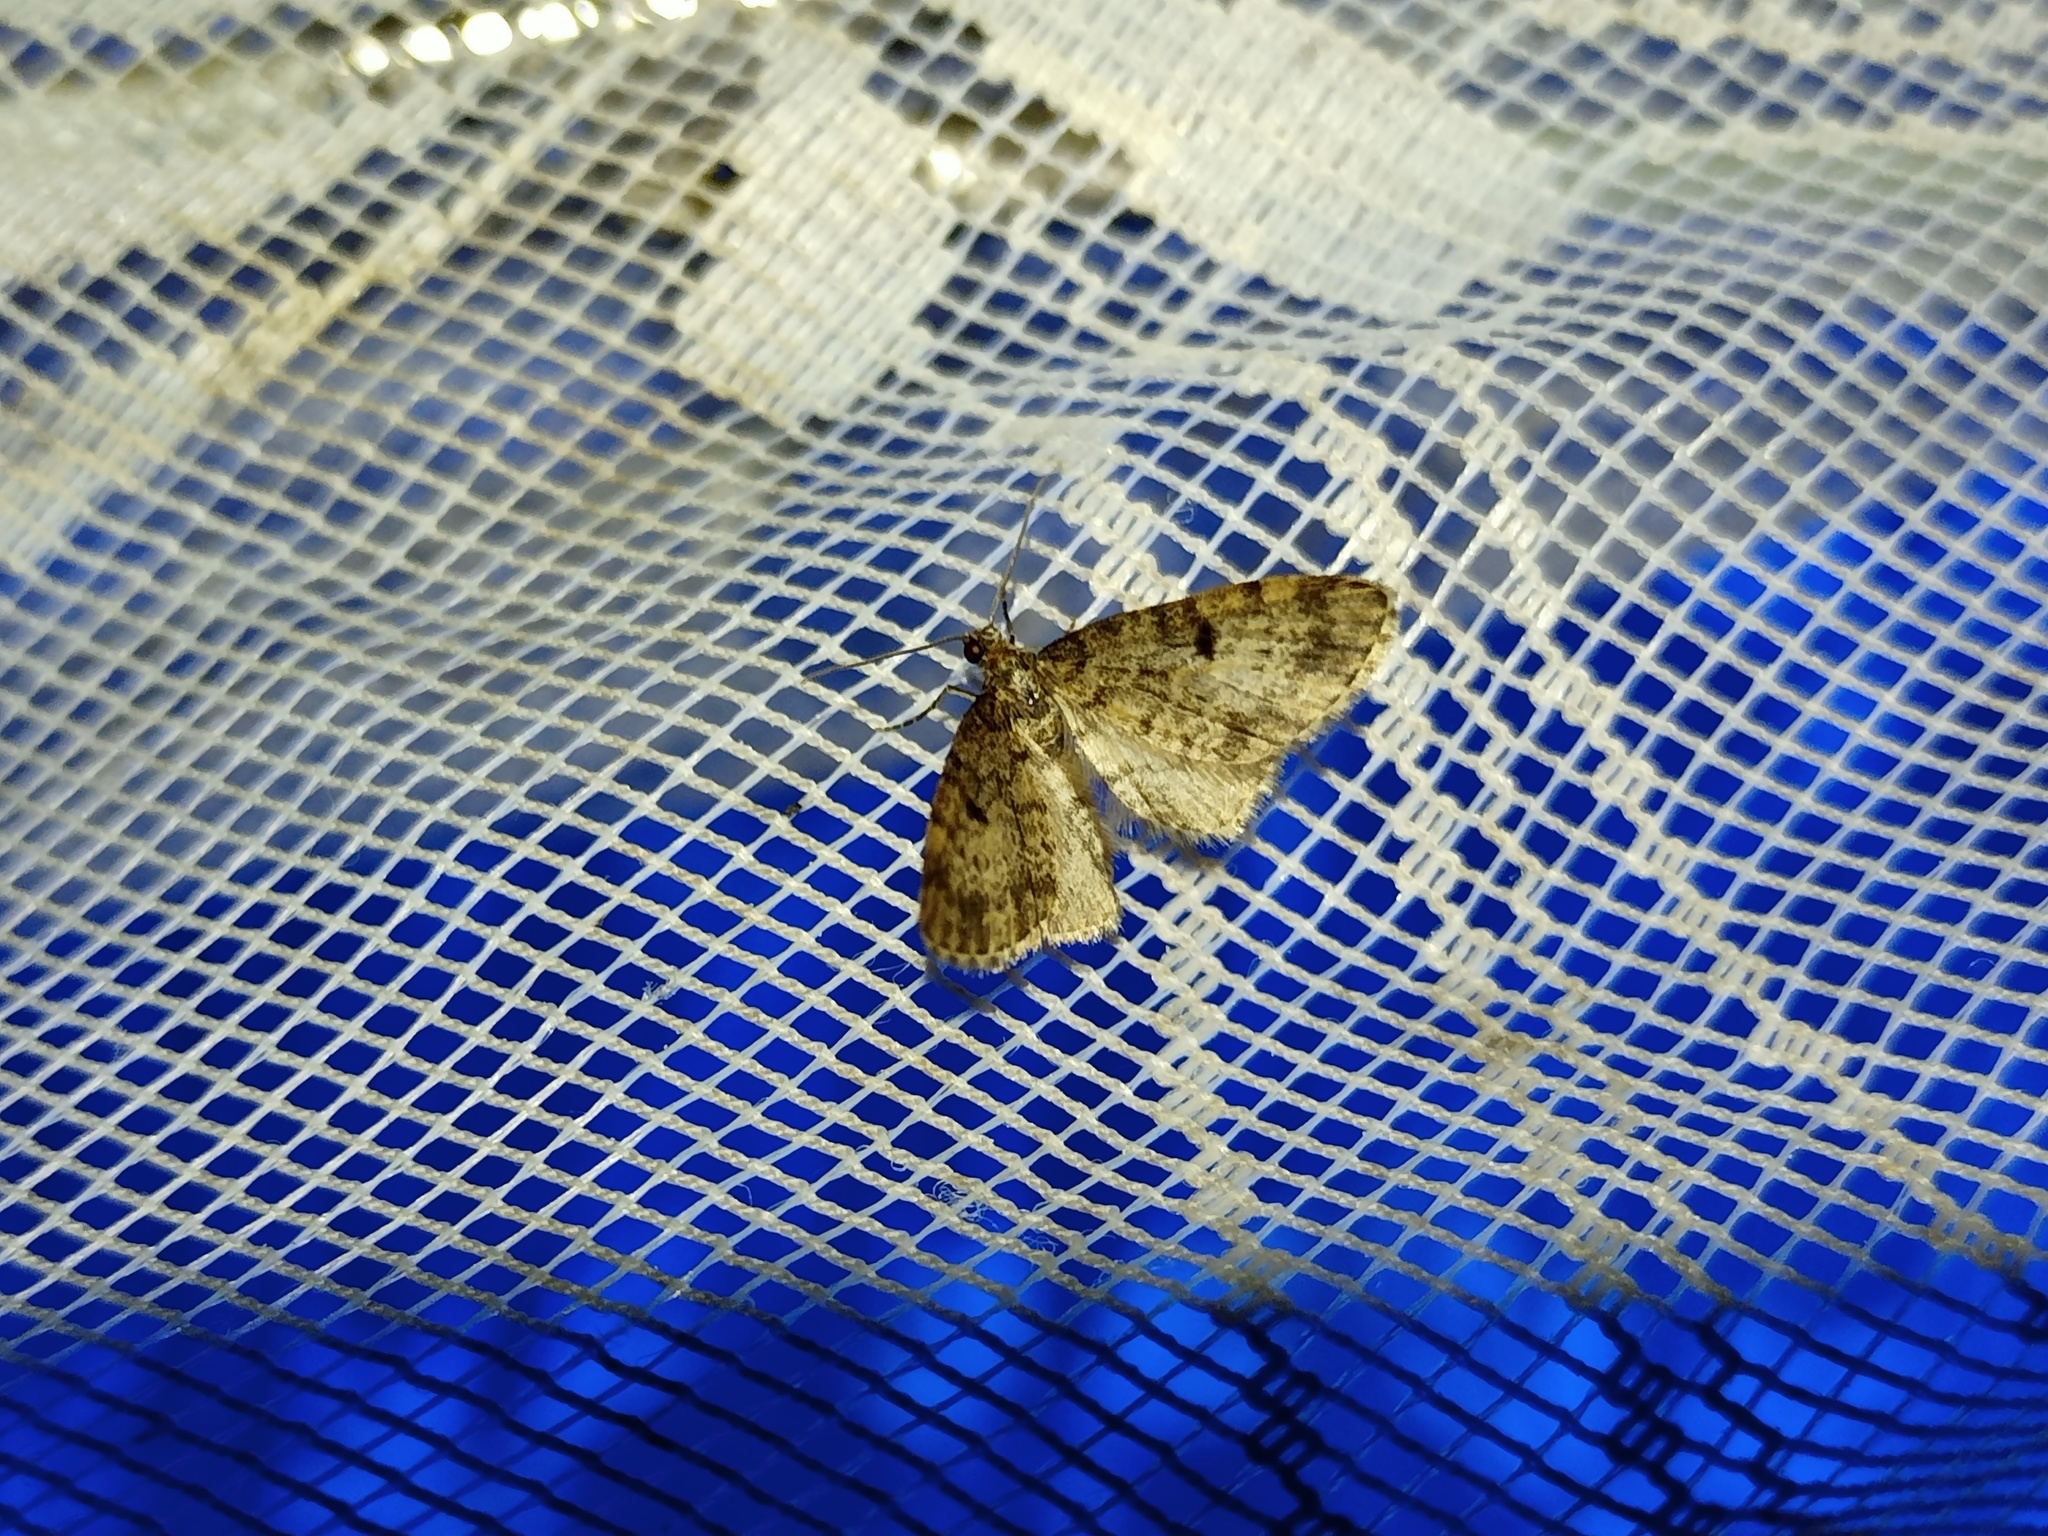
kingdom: Animalia
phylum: Arthropoda
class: Insecta
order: Lepidoptera
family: Geometridae
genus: Eupithecia
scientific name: Eupithecia tantillaria
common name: Dwarf pug
